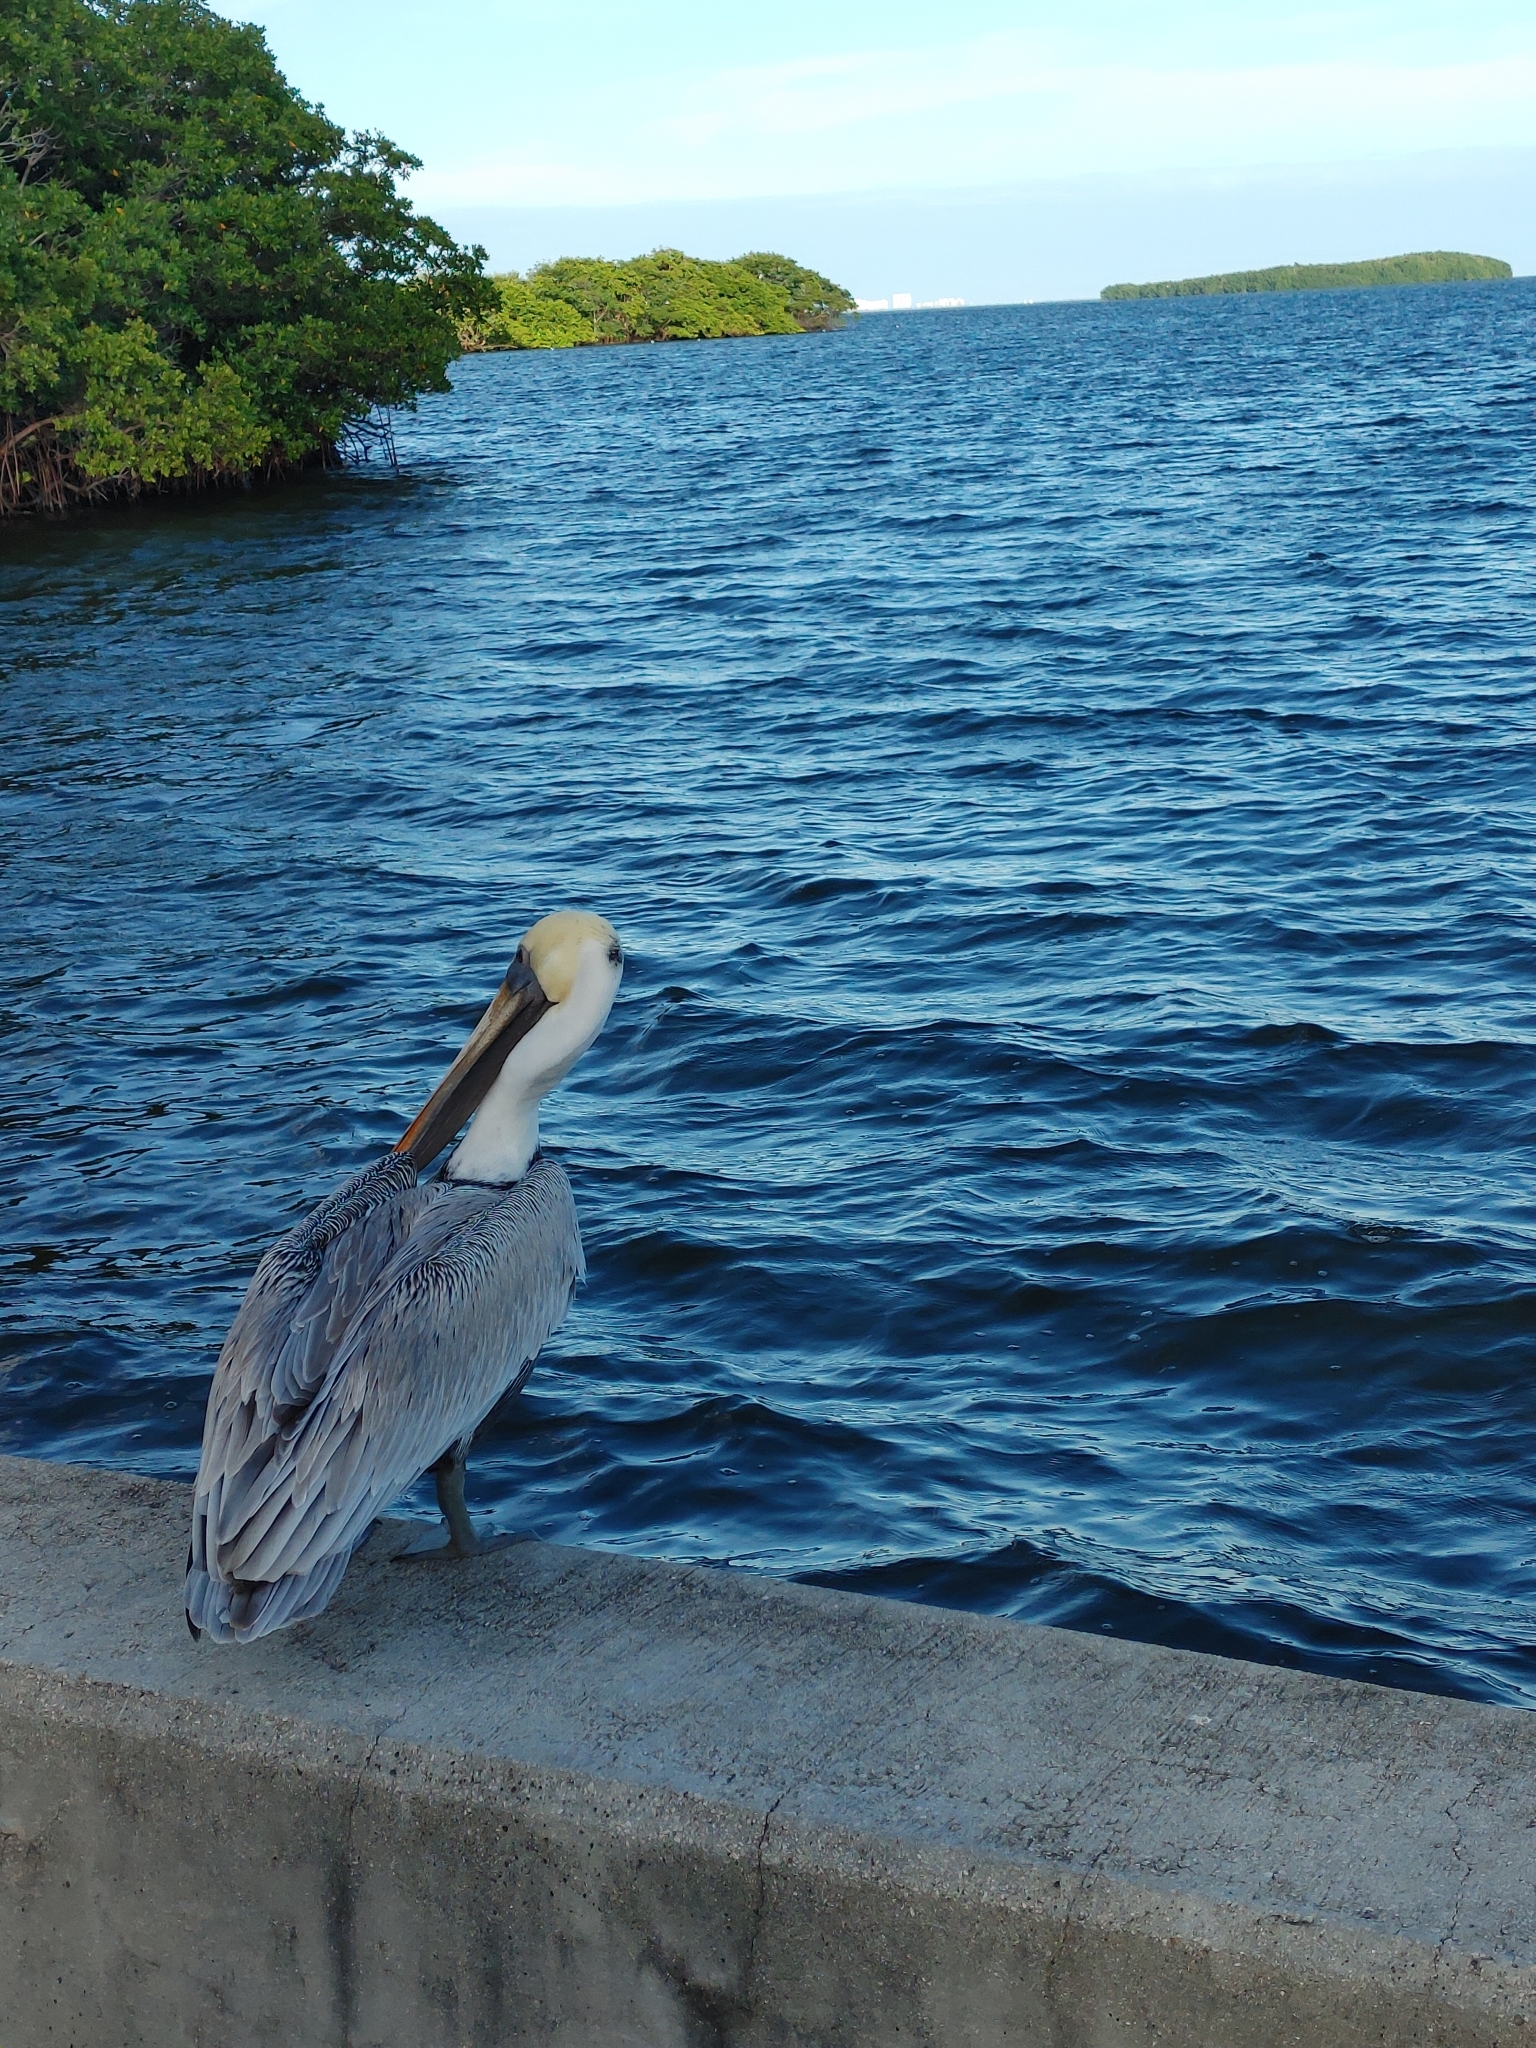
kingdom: Animalia
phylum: Chordata
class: Aves
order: Pelecaniformes
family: Pelecanidae
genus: Pelecanus
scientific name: Pelecanus occidentalis
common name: Brown pelican
